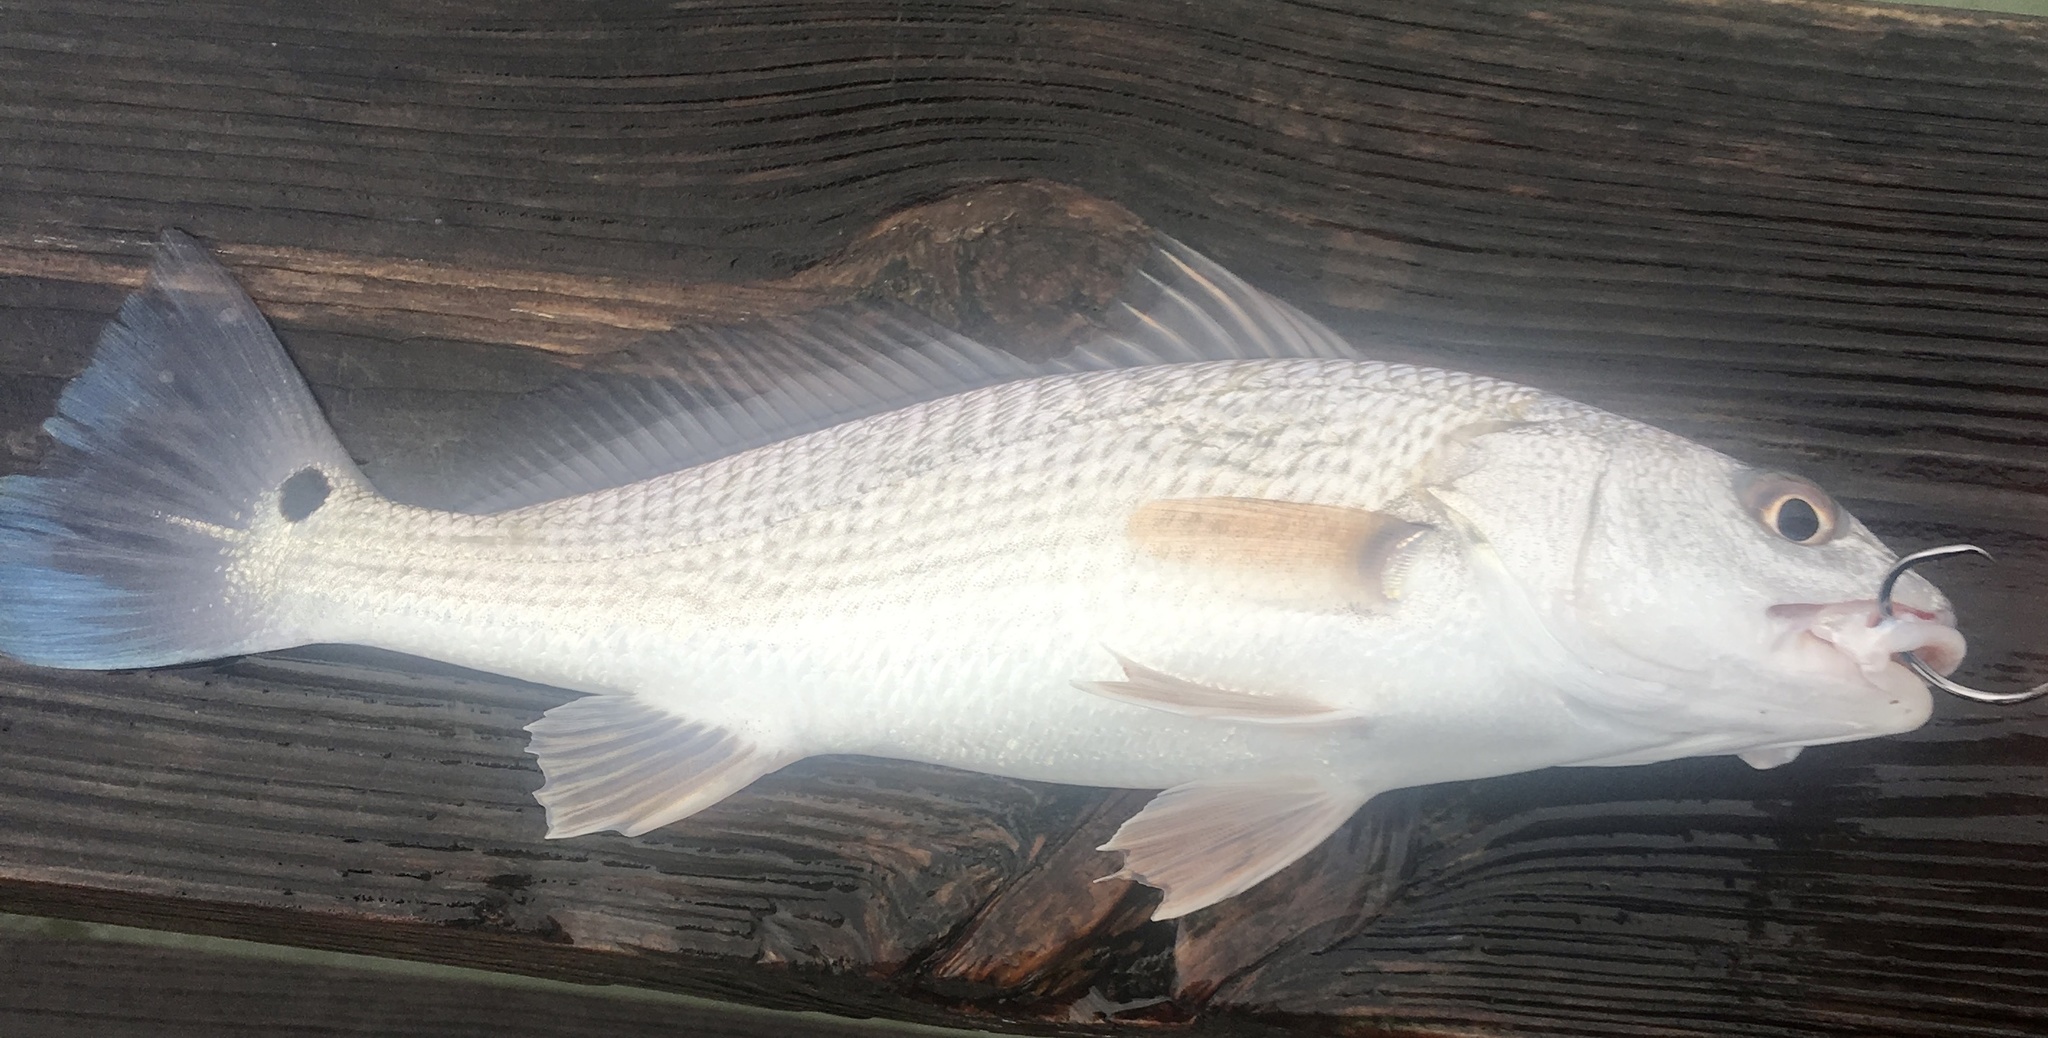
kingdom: Animalia
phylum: Chordata
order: Perciformes
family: Sciaenidae
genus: Sciaenops
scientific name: Sciaenops ocellatus
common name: Red drum
